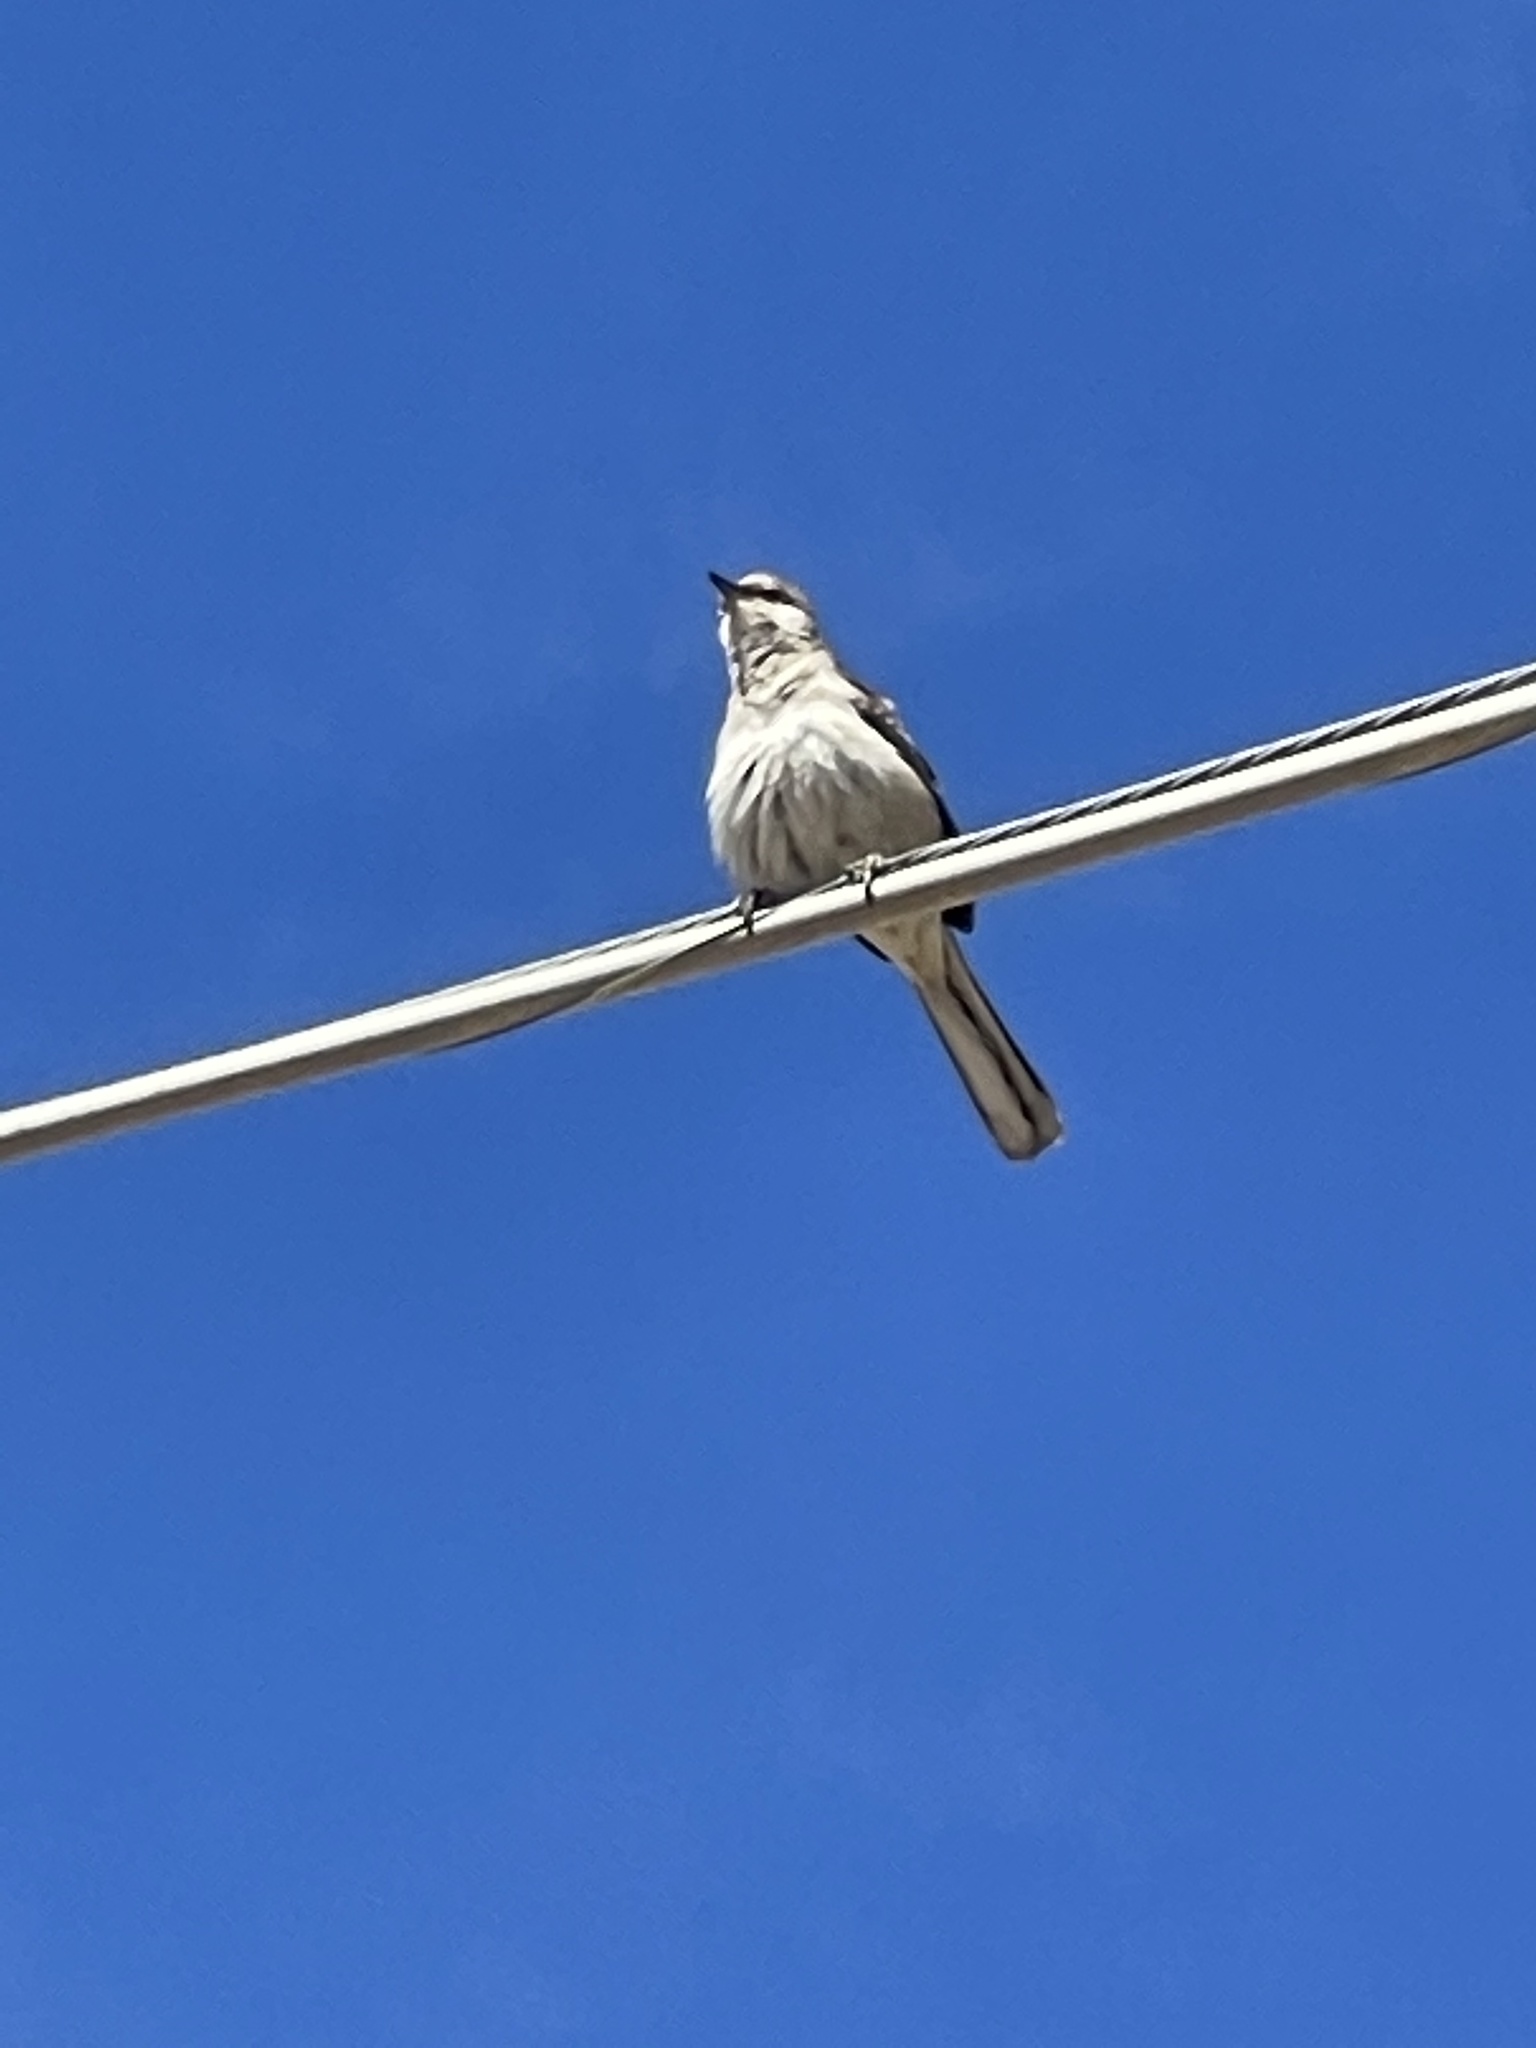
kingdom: Animalia
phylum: Chordata
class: Aves
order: Passeriformes
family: Mimidae
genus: Mimus
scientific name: Mimus polyglottos
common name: Northern mockingbird
